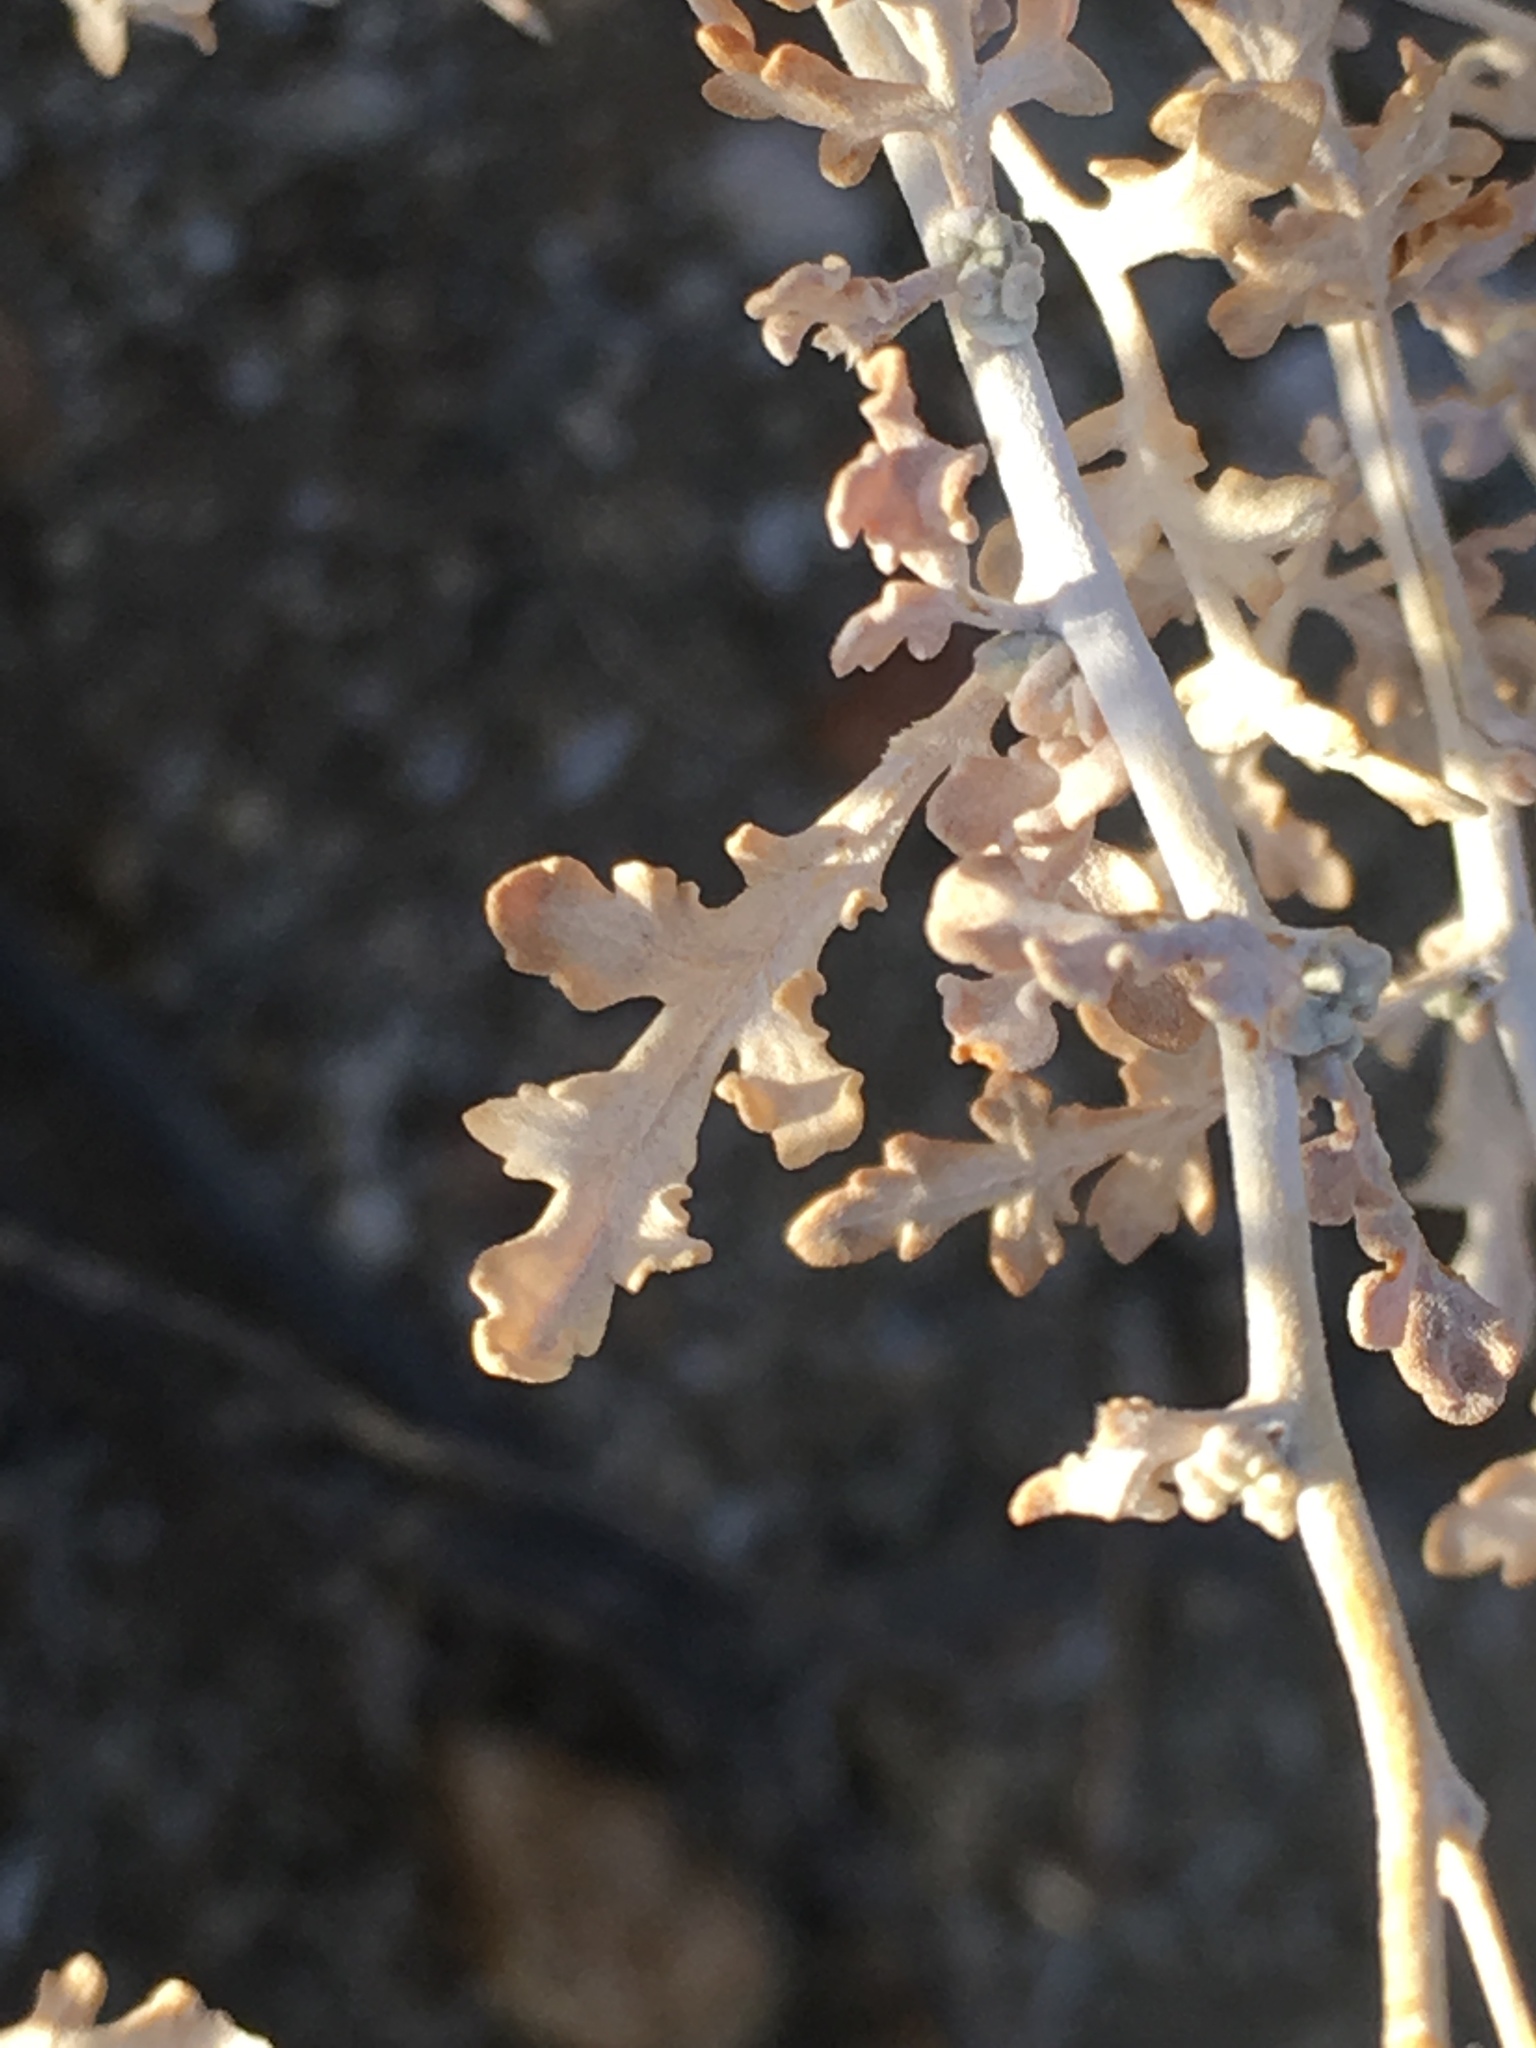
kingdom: Plantae
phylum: Tracheophyta
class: Magnoliopsida
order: Asterales
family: Asteraceae
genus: Ambrosia
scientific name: Ambrosia dumosa
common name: Bur-sage
